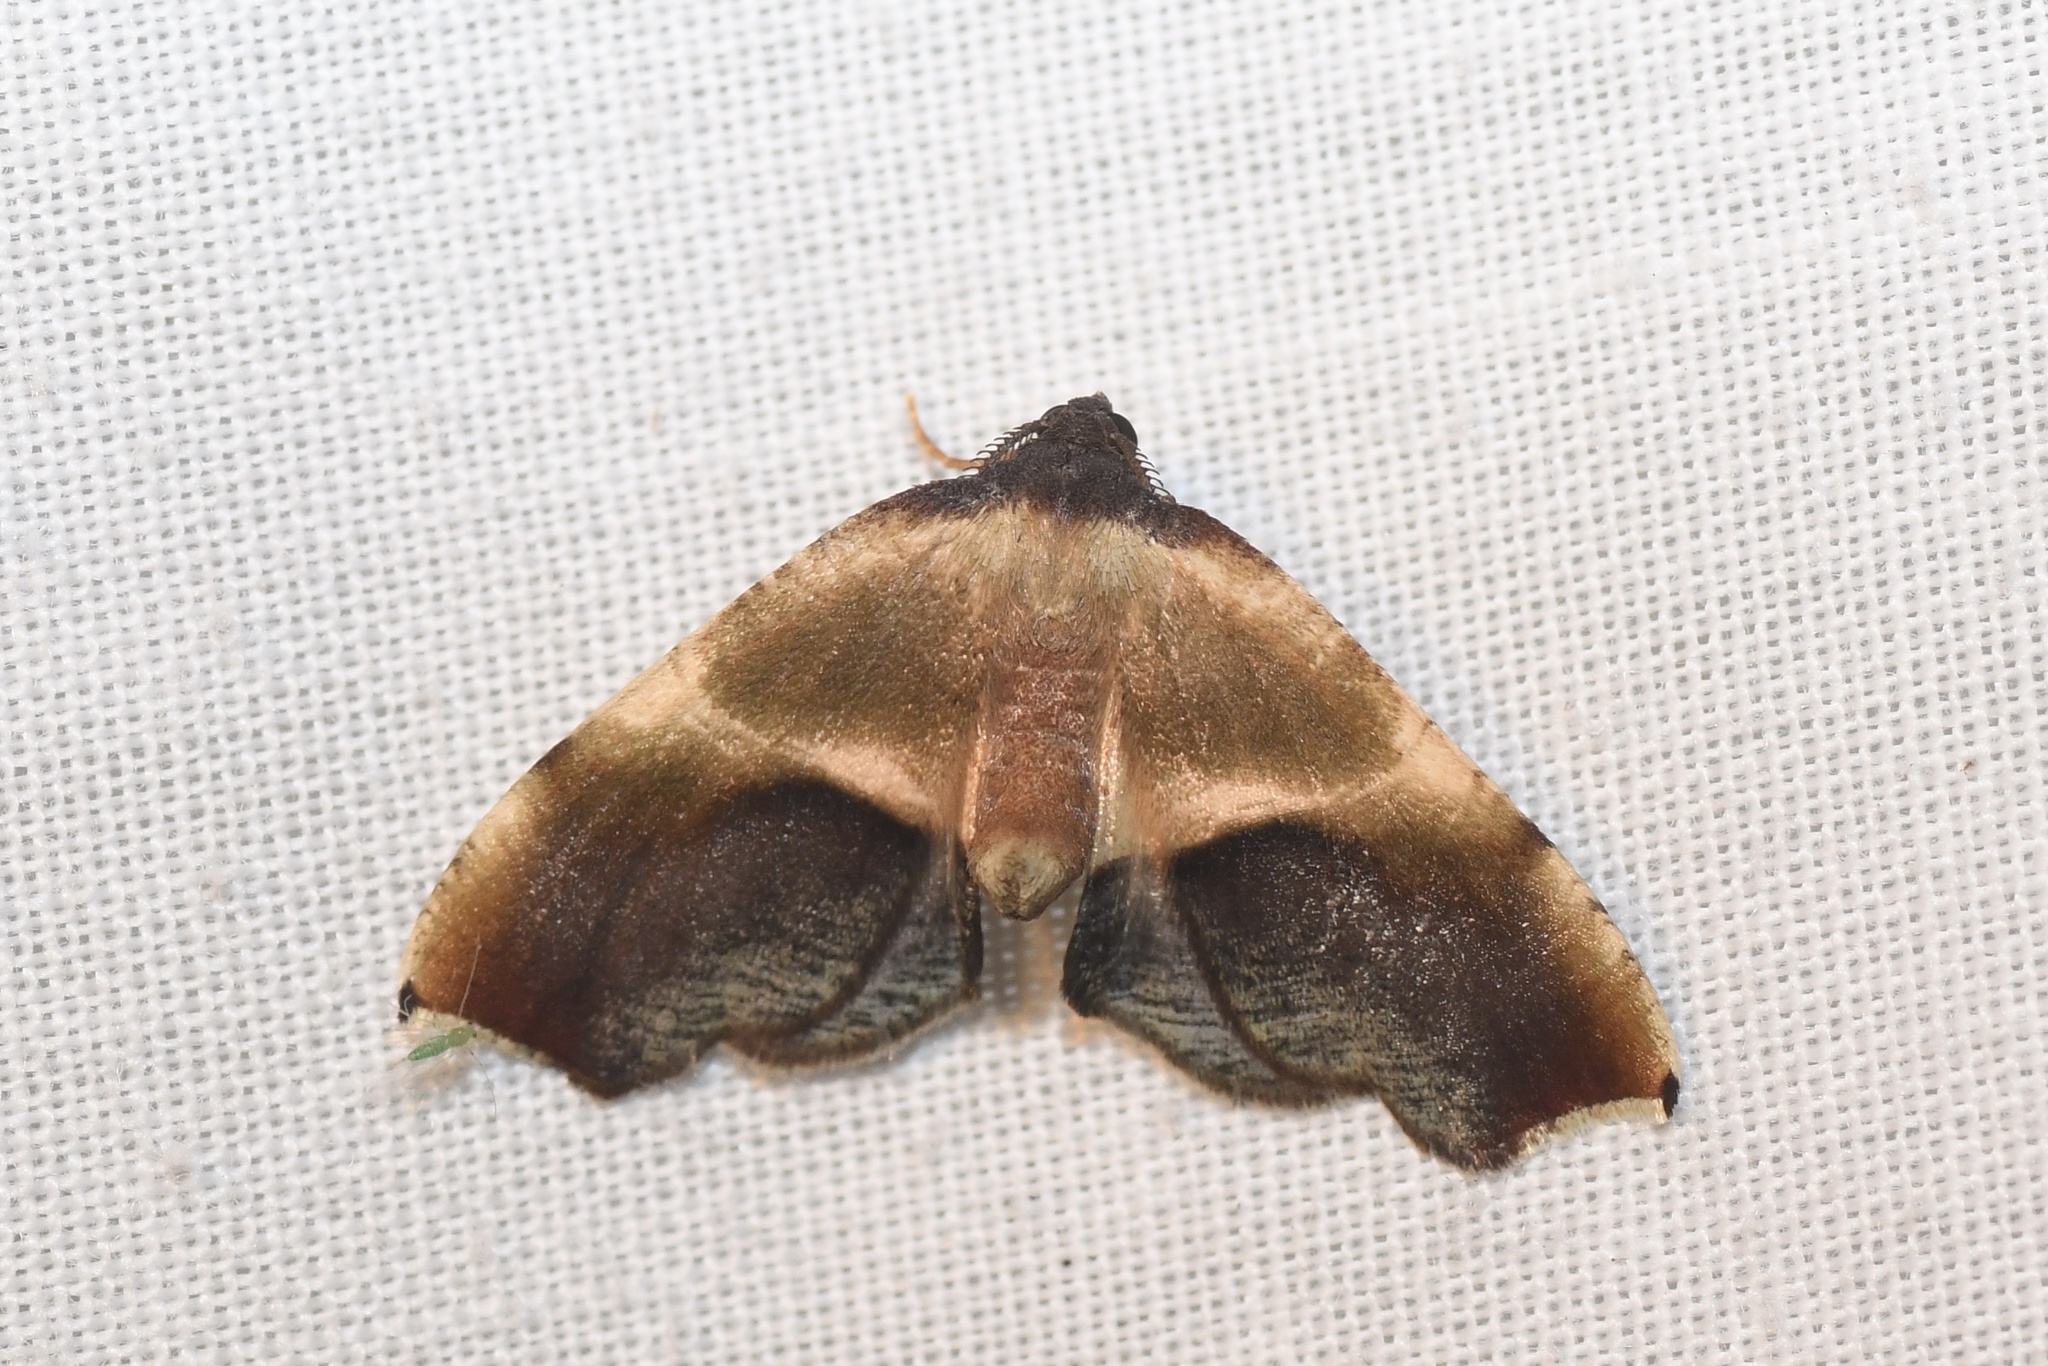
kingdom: Animalia
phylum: Arthropoda
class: Insecta
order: Lepidoptera
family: Geometridae
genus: Plagodis
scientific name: Plagodis kuetzingi
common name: Purple plagodis
